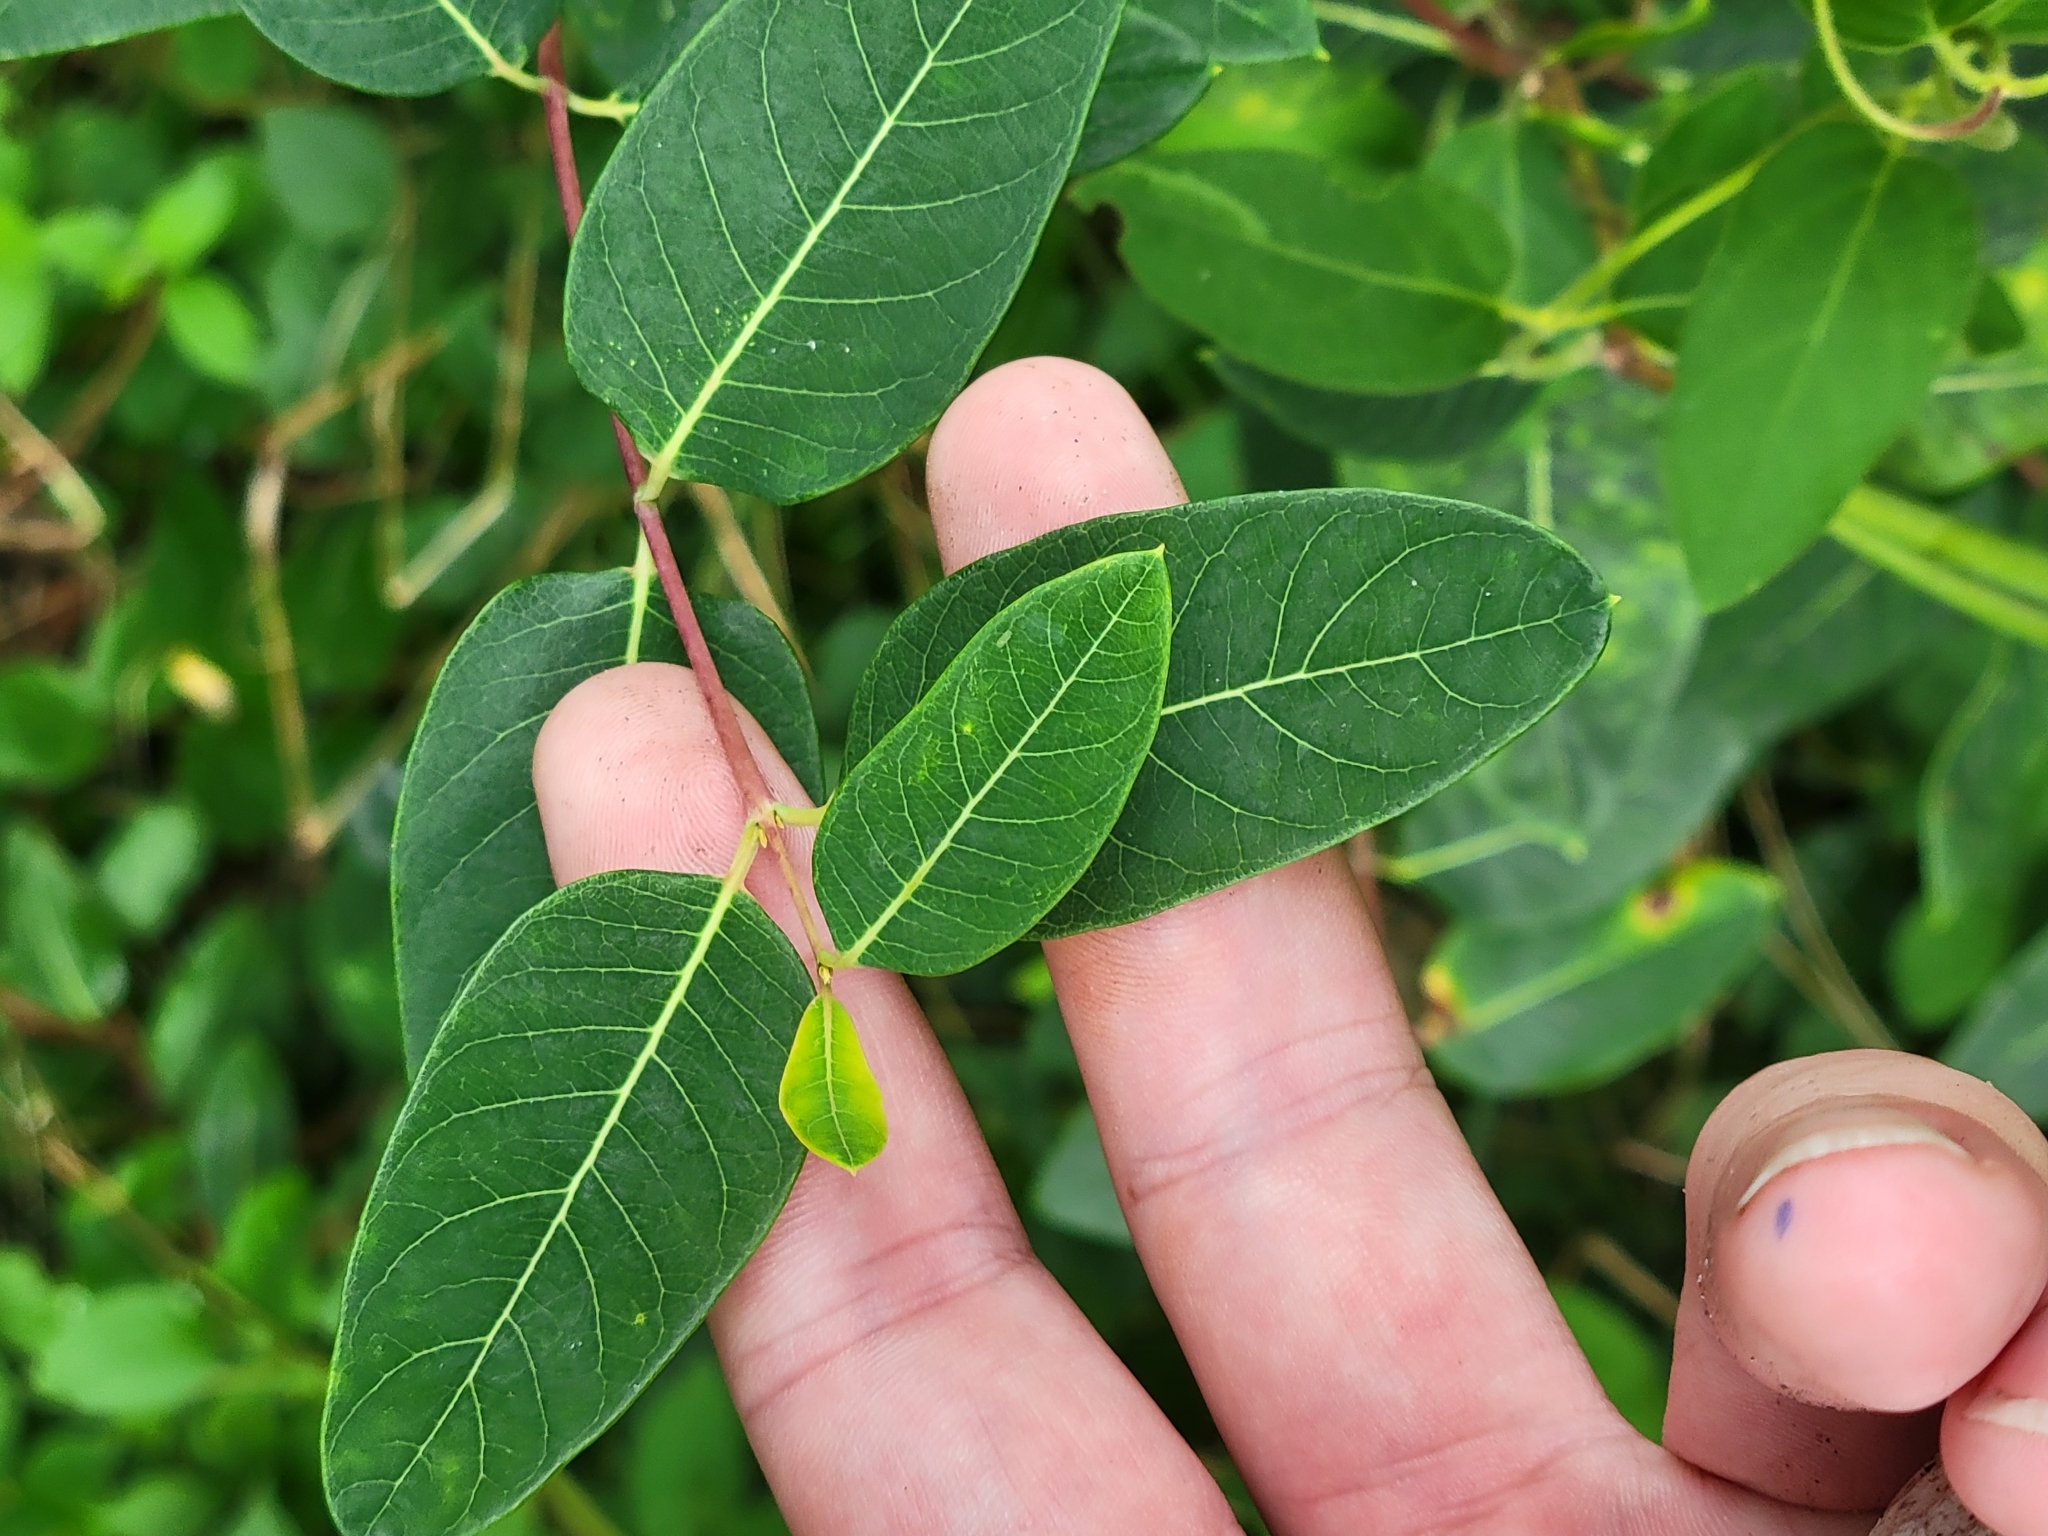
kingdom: Plantae
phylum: Tracheophyta
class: Magnoliopsida
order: Gentianales
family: Apocynaceae
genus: Apocynum
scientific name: Apocynum cannabinum
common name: Hemp dogbane
